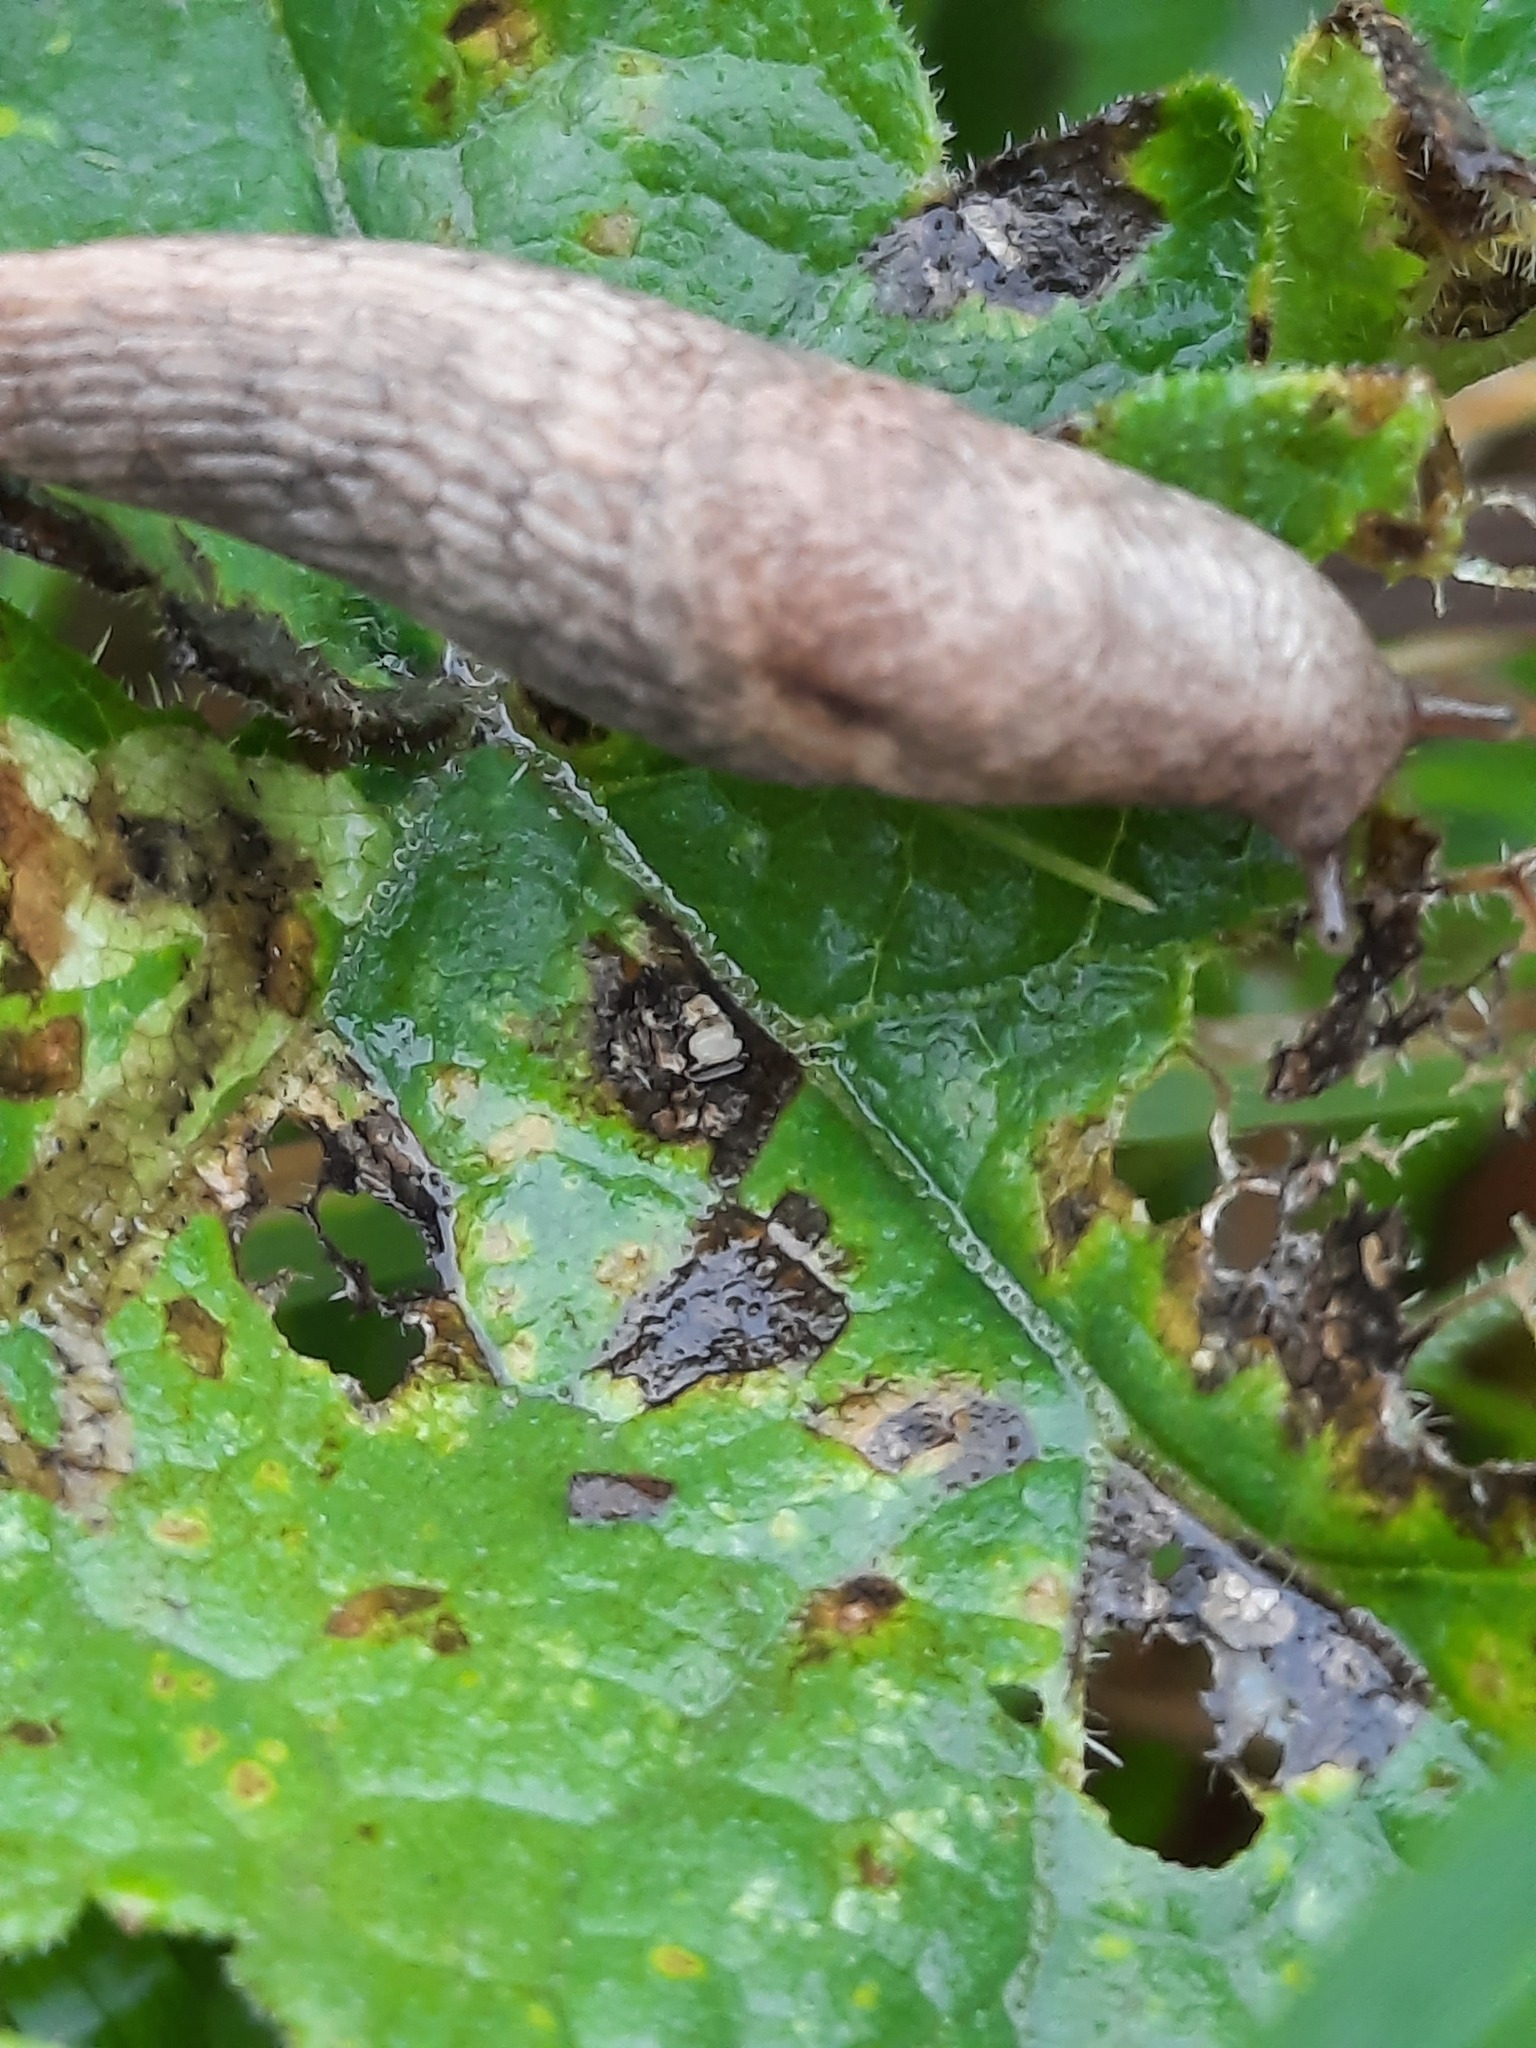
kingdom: Animalia
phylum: Mollusca
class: Gastropoda
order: Stylommatophora
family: Agriolimacidae
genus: Deroceras
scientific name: Deroceras reticulatum
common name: Gray field slug
